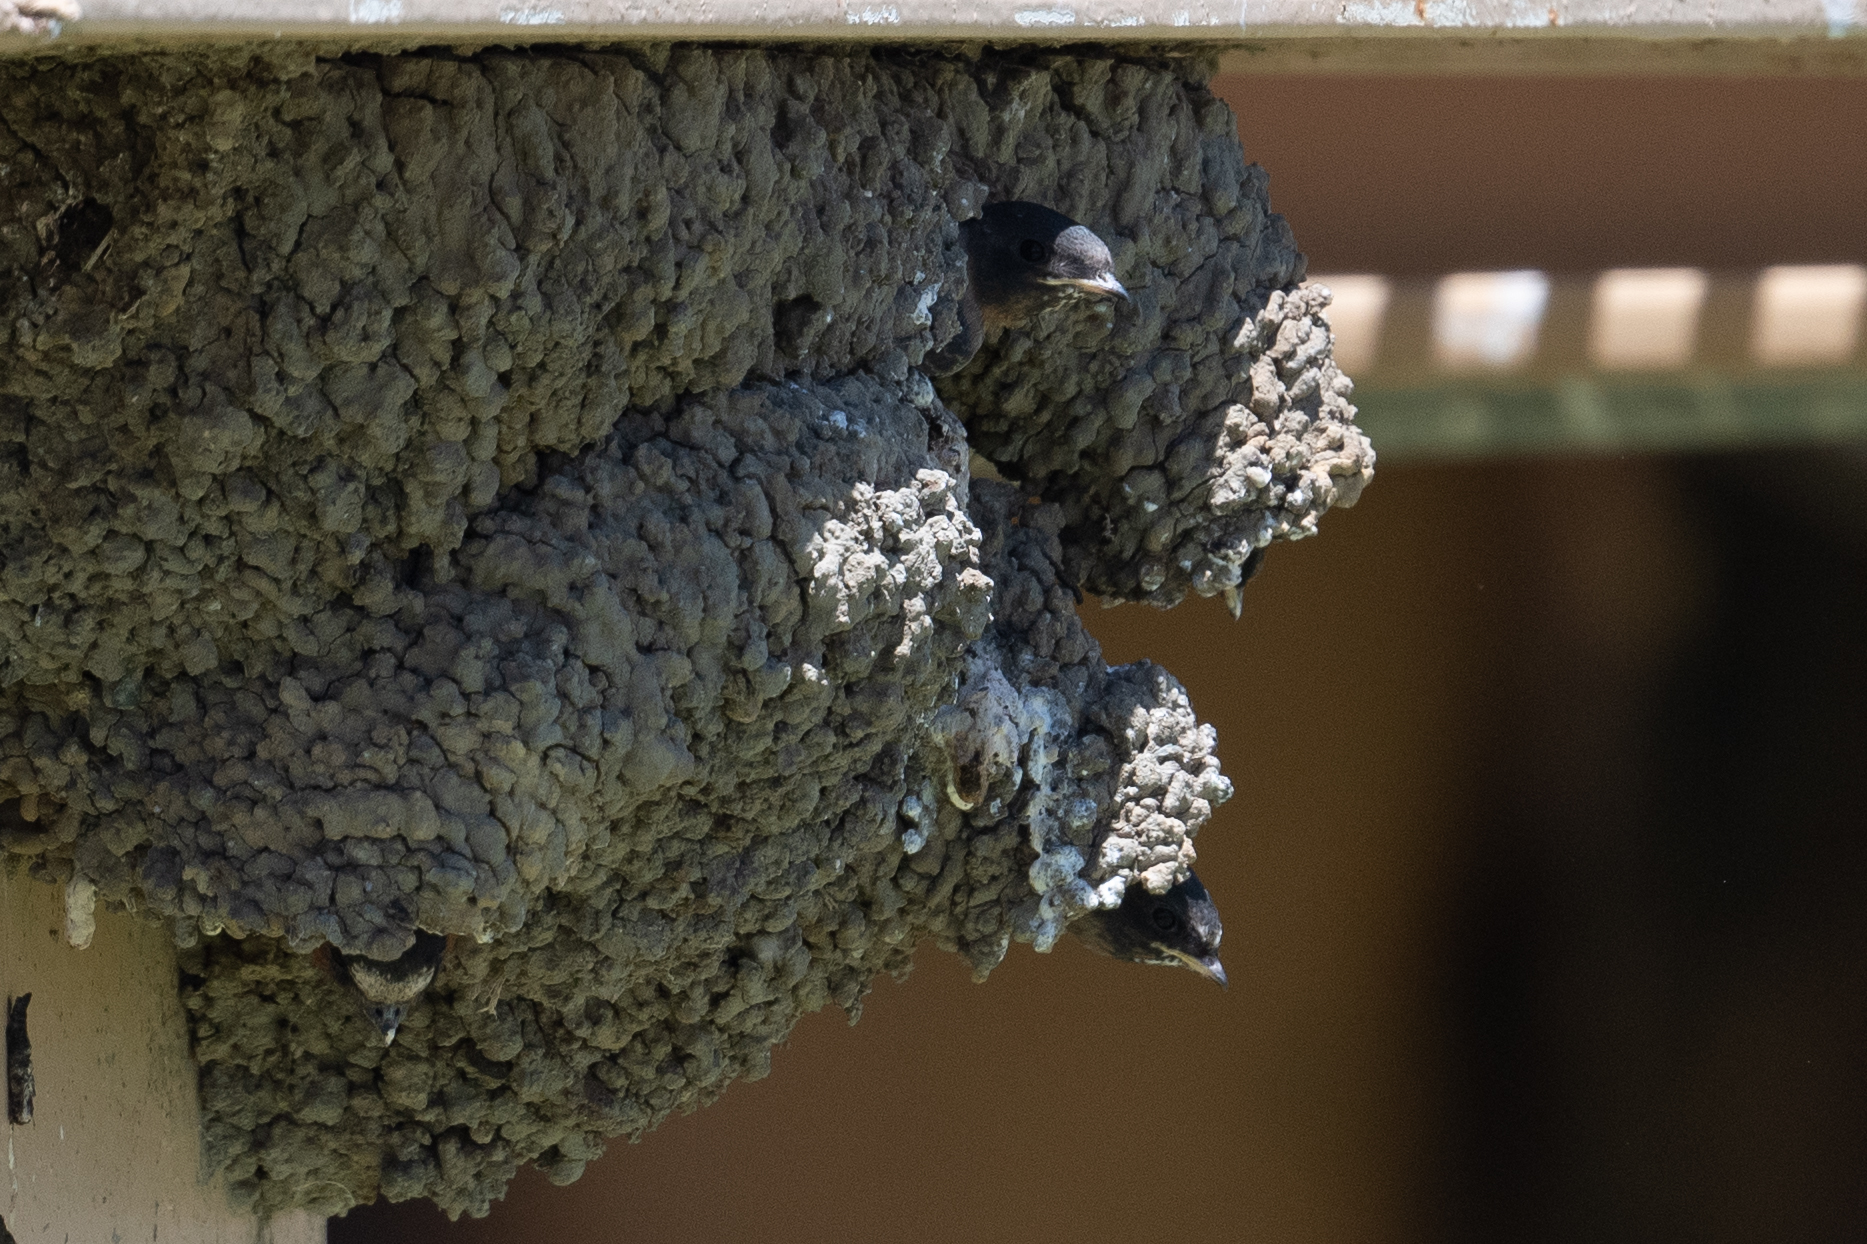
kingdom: Animalia
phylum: Chordata
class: Aves
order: Passeriformes
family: Hirundinidae
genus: Petrochelidon
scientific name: Petrochelidon pyrrhonota
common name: American cliff swallow
